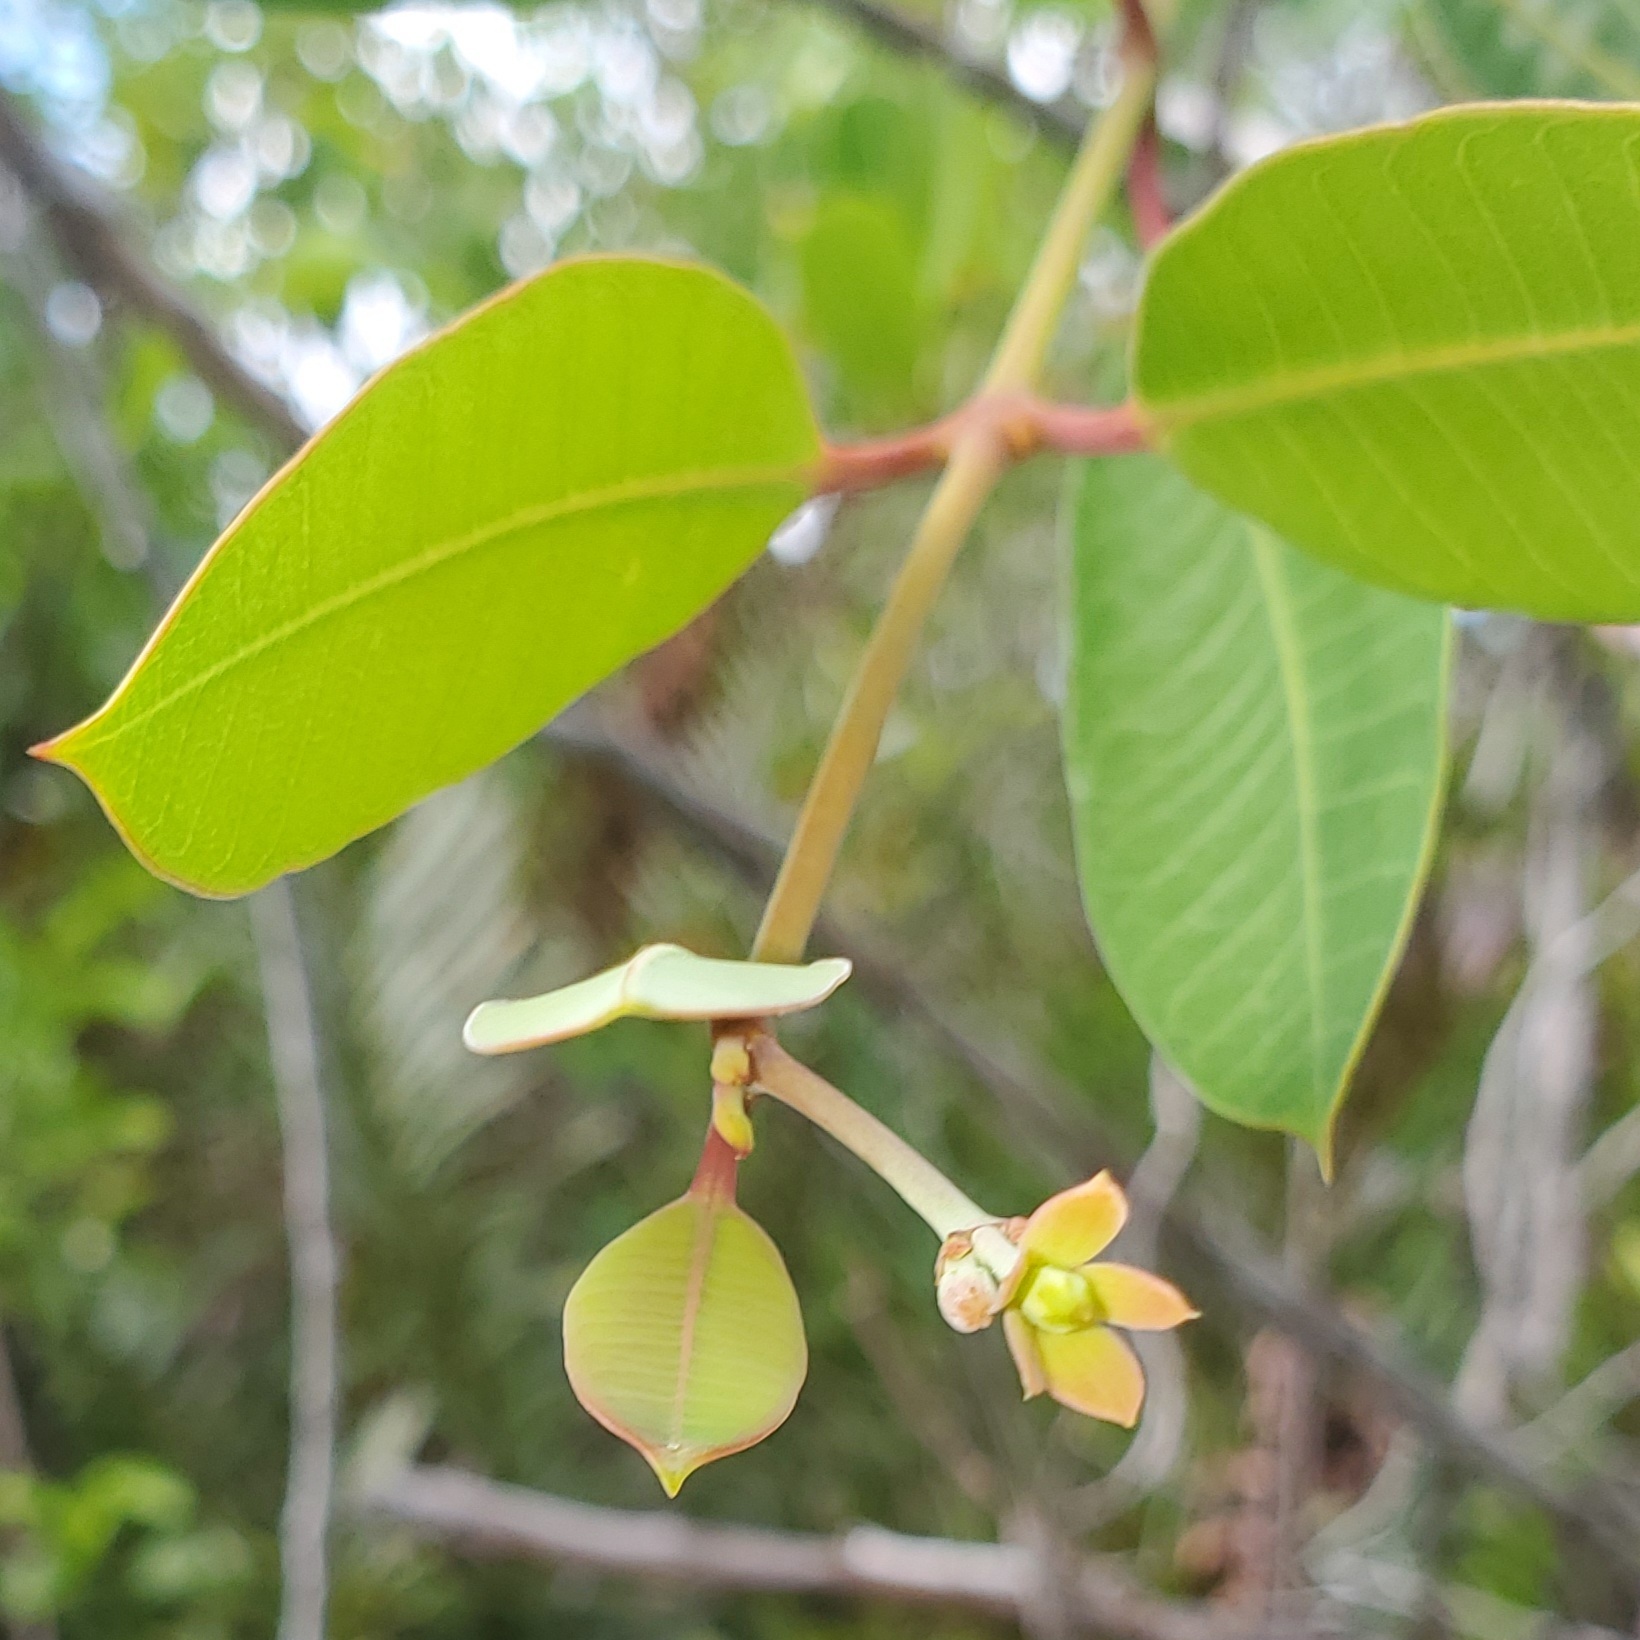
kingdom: Plantae
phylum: Tracheophyta
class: Magnoliopsida
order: Gentianales
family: Apocynaceae
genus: Rhabdadenia
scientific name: Rhabdadenia biflora
